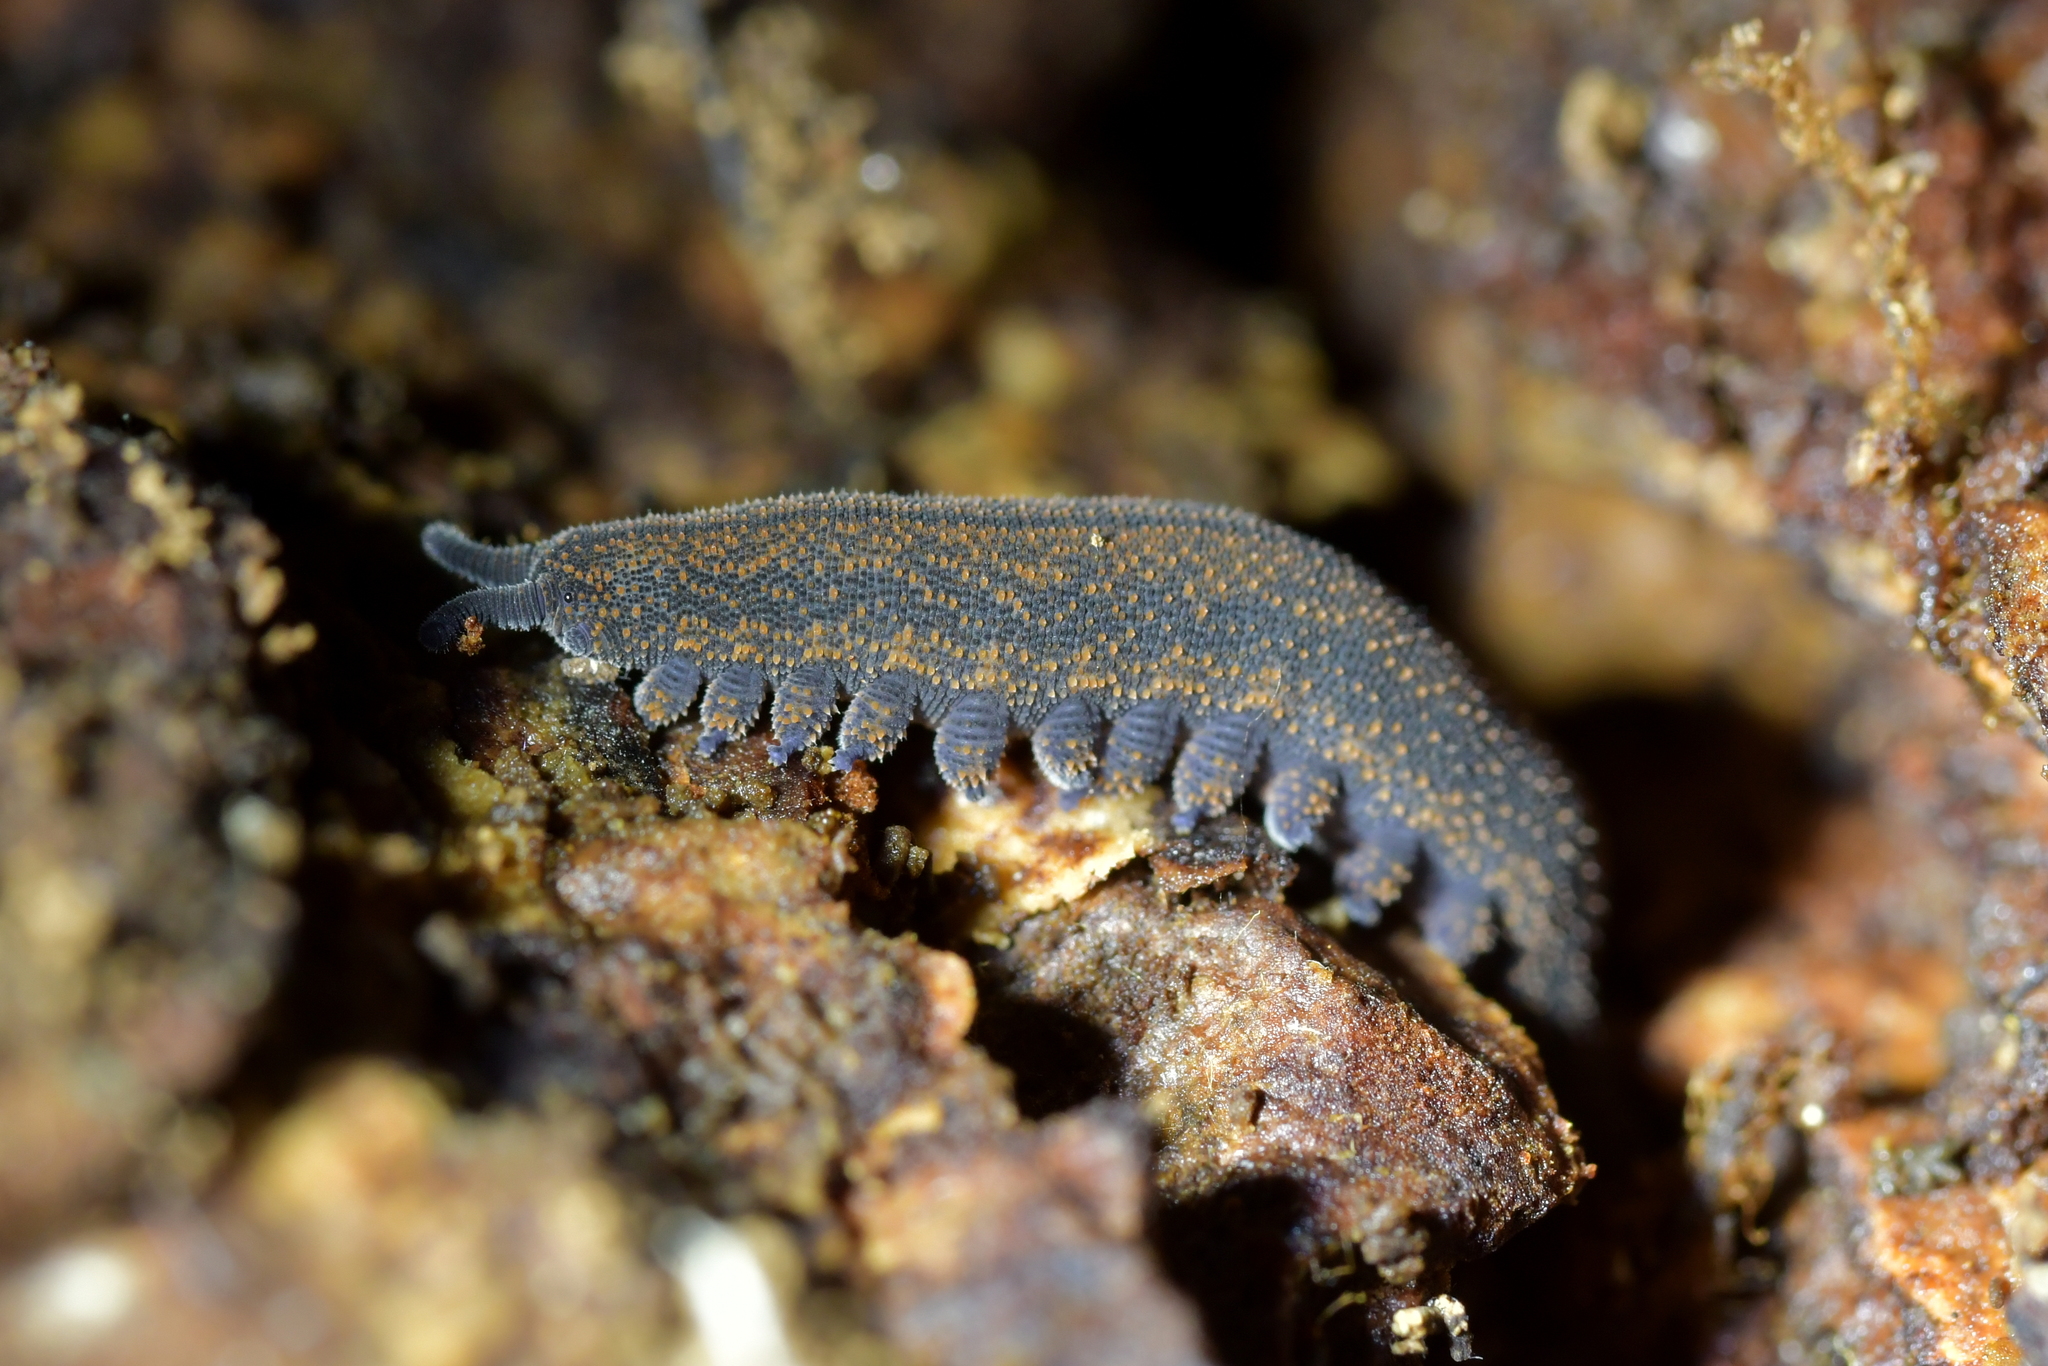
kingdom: Animalia
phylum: Onychophora
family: Peripatopsidae
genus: Peripatoides
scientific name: Peripatoides novaezealandiae
